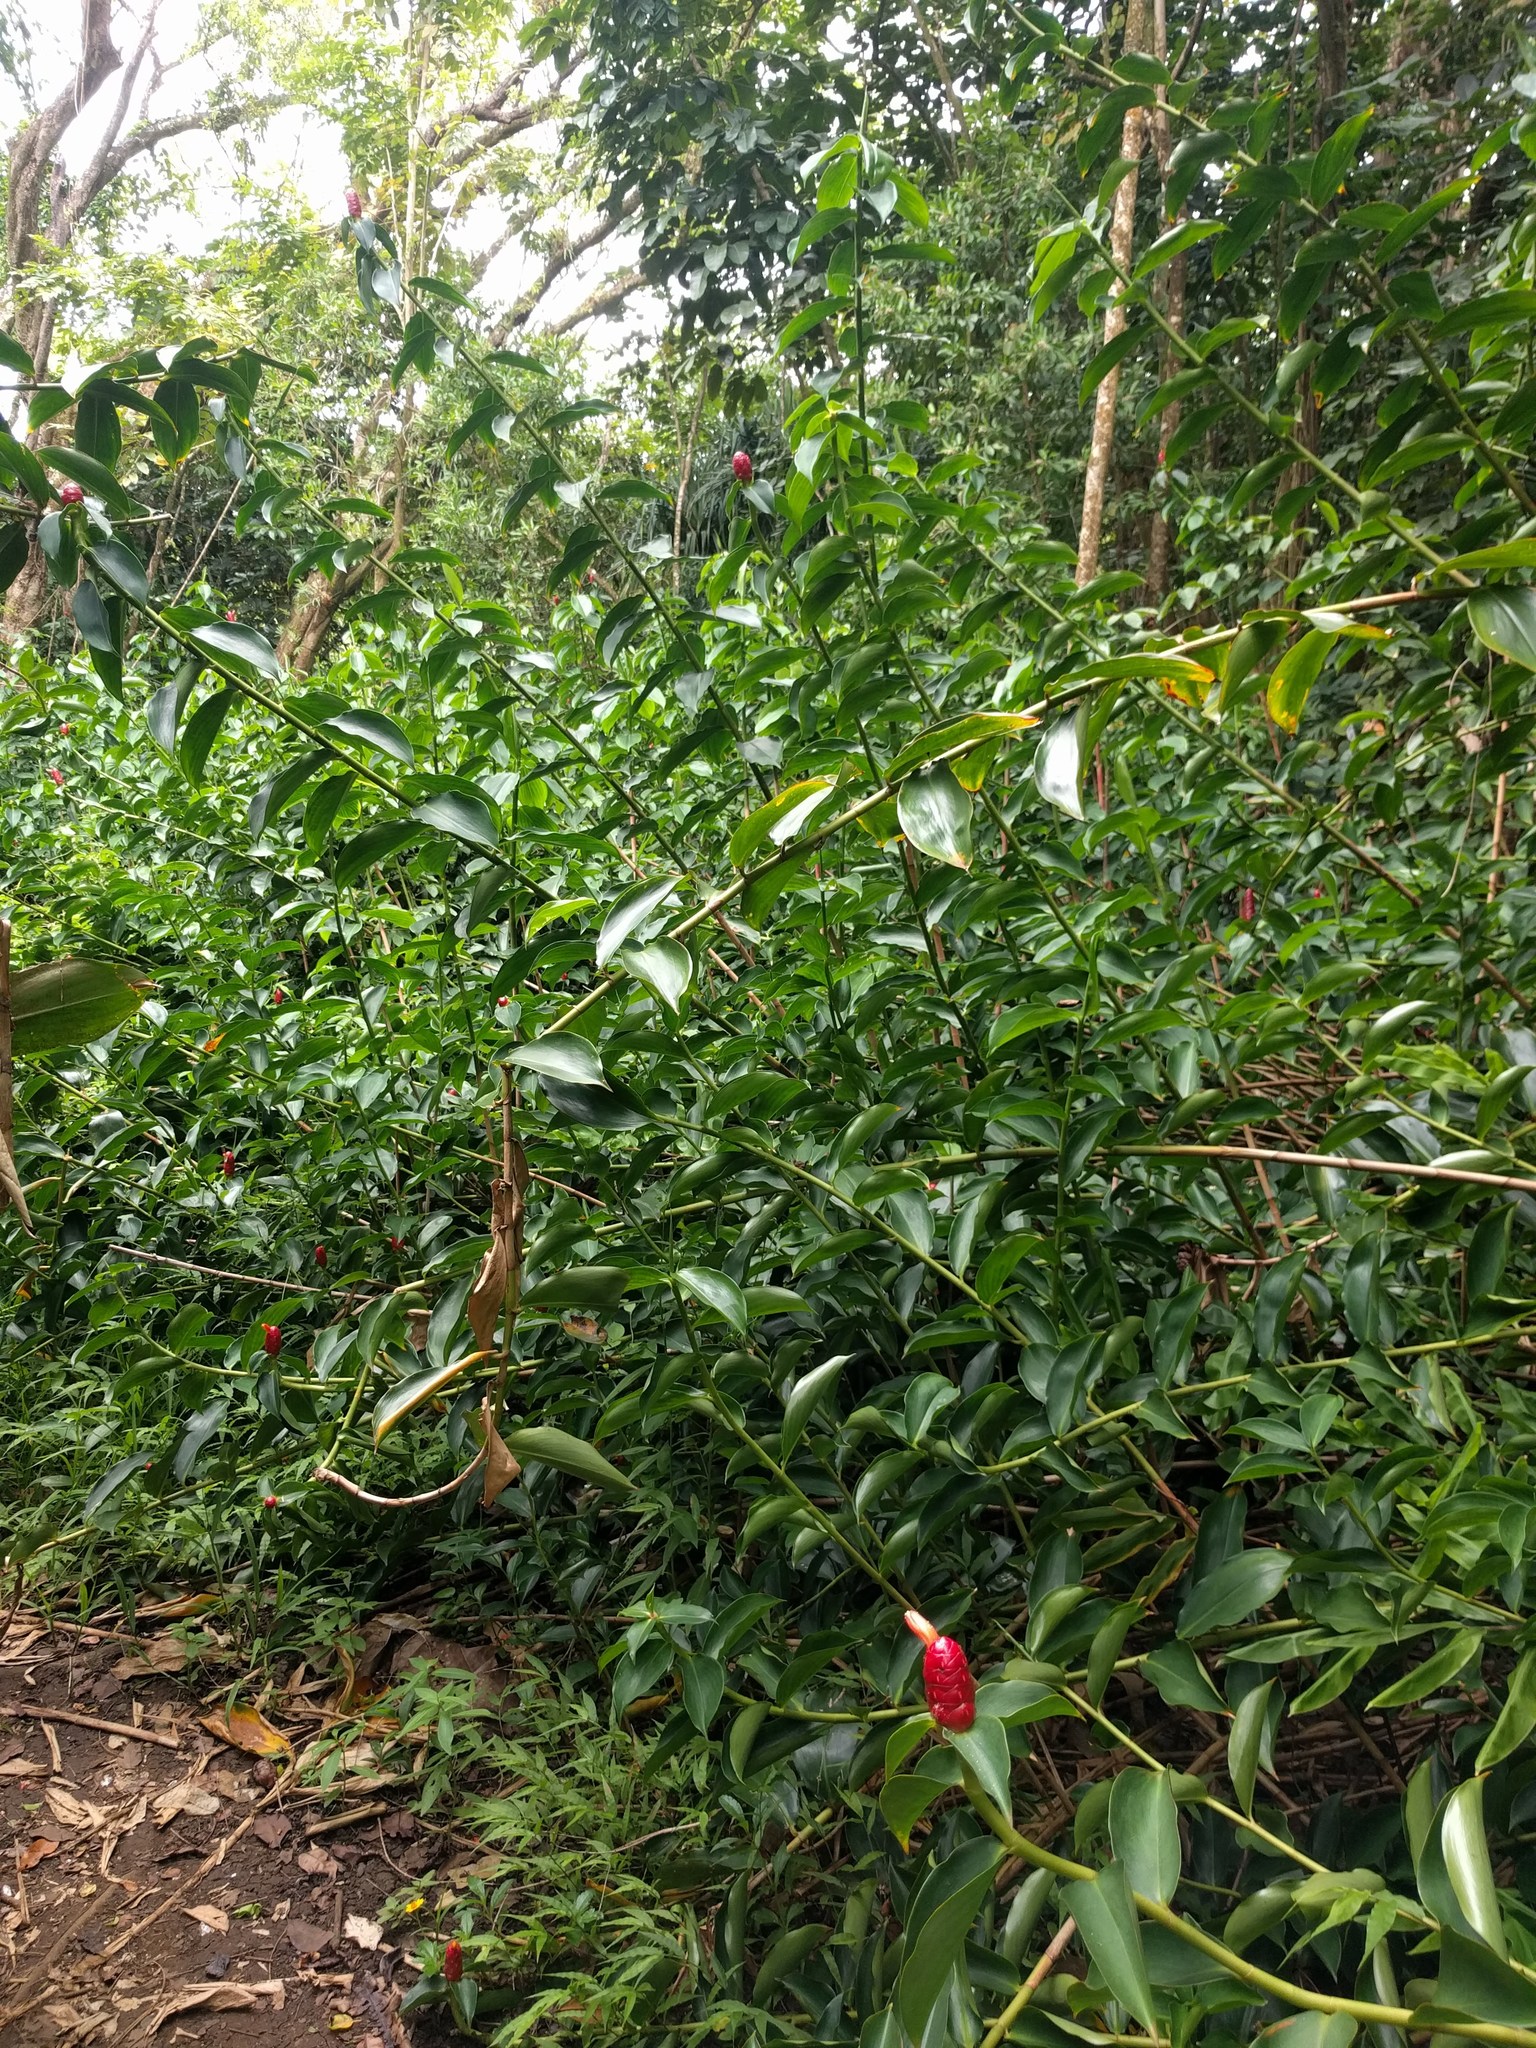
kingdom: Plantae
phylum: Tracheophyta
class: Liliopsida
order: Zingiberales
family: Costaceae
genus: Costus
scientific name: Costus woodsonii
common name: Scarlet spiral-ginger
